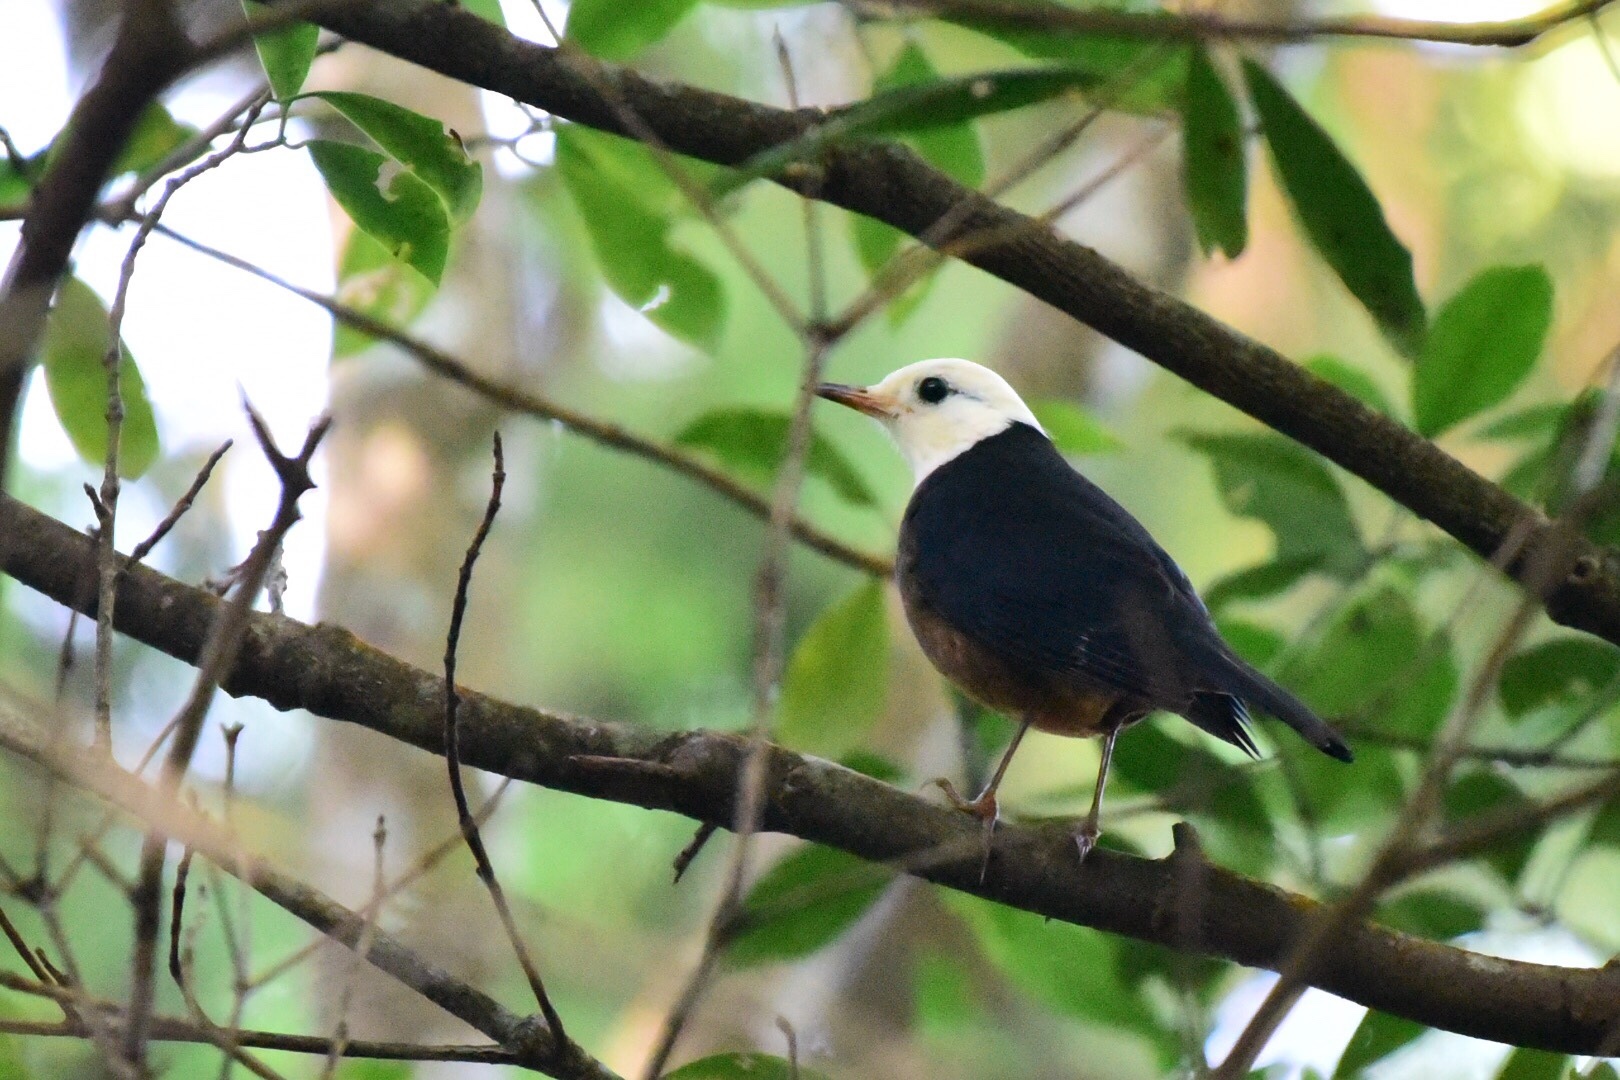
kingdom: Animalia
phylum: Chordata
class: Aves
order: Passeriformes
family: Turdidae
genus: Turdus
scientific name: Turdus poliocephalus
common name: Island thrush
